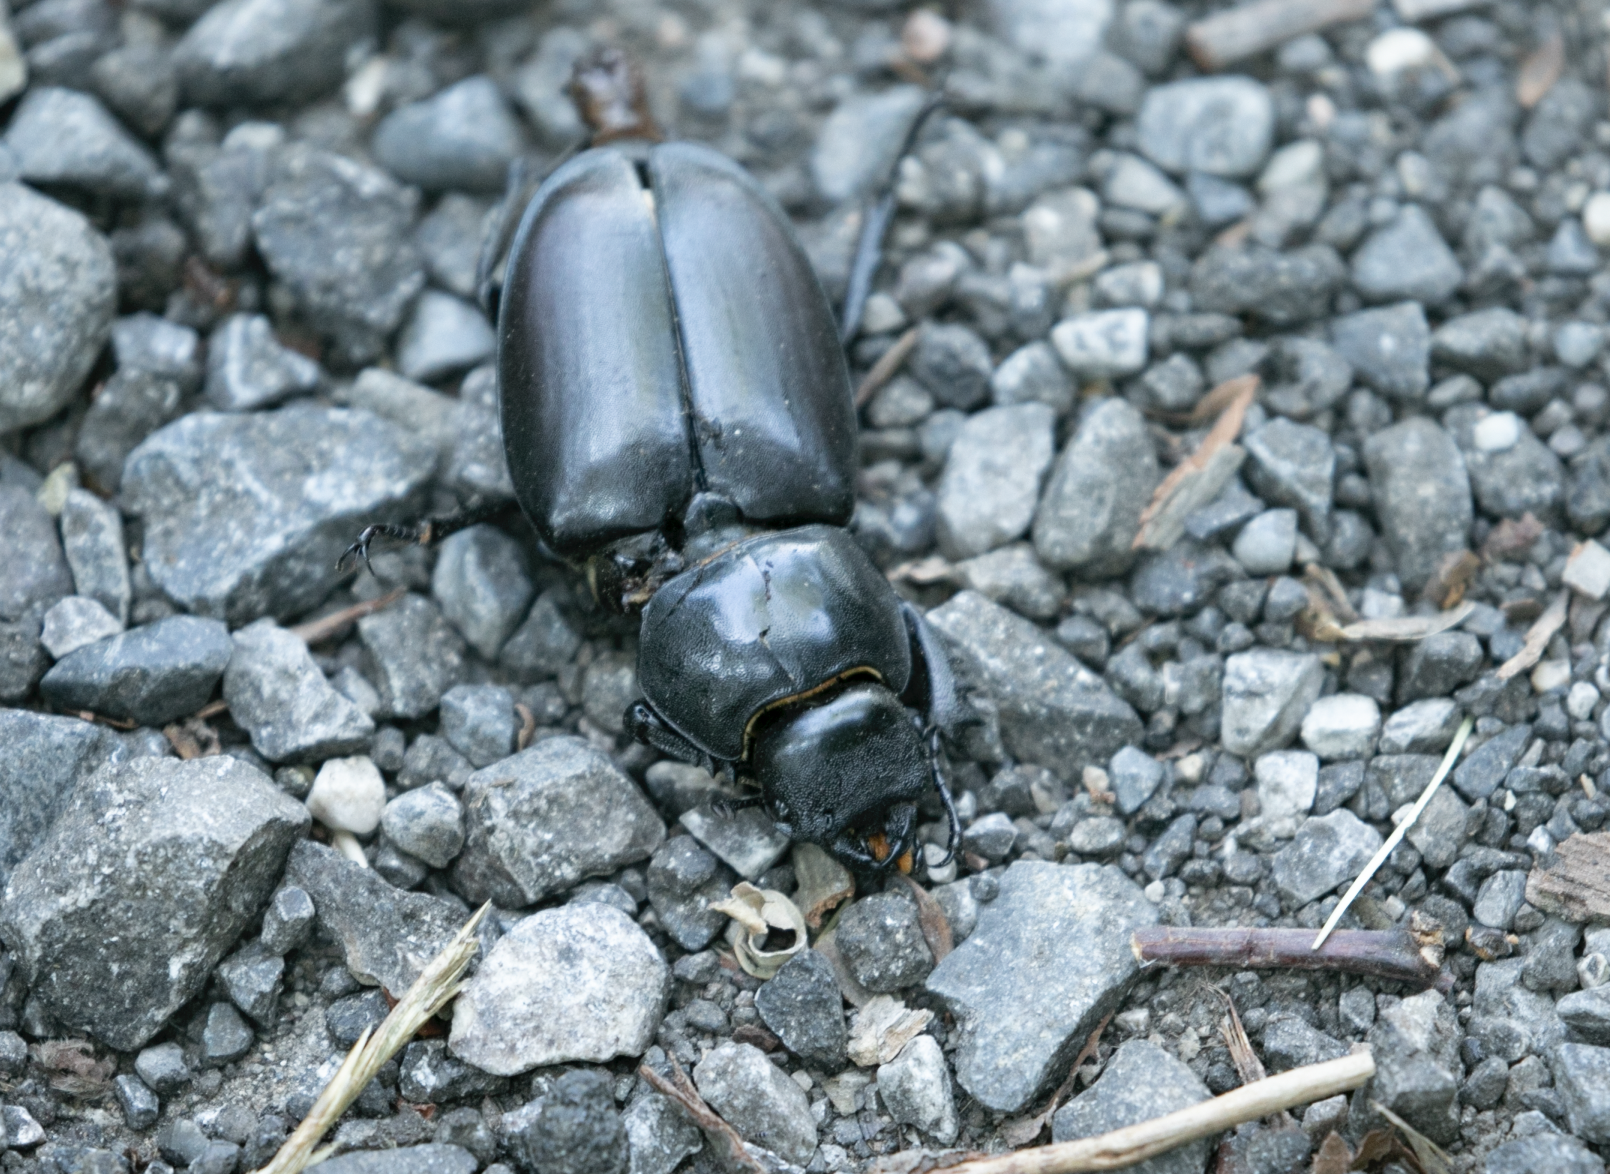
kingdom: Animalia
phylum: Arthropoda
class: Insecta
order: Coleoptera
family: Lucanidae
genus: Lucanus
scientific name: Lucanus cervus
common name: Stag beetle
